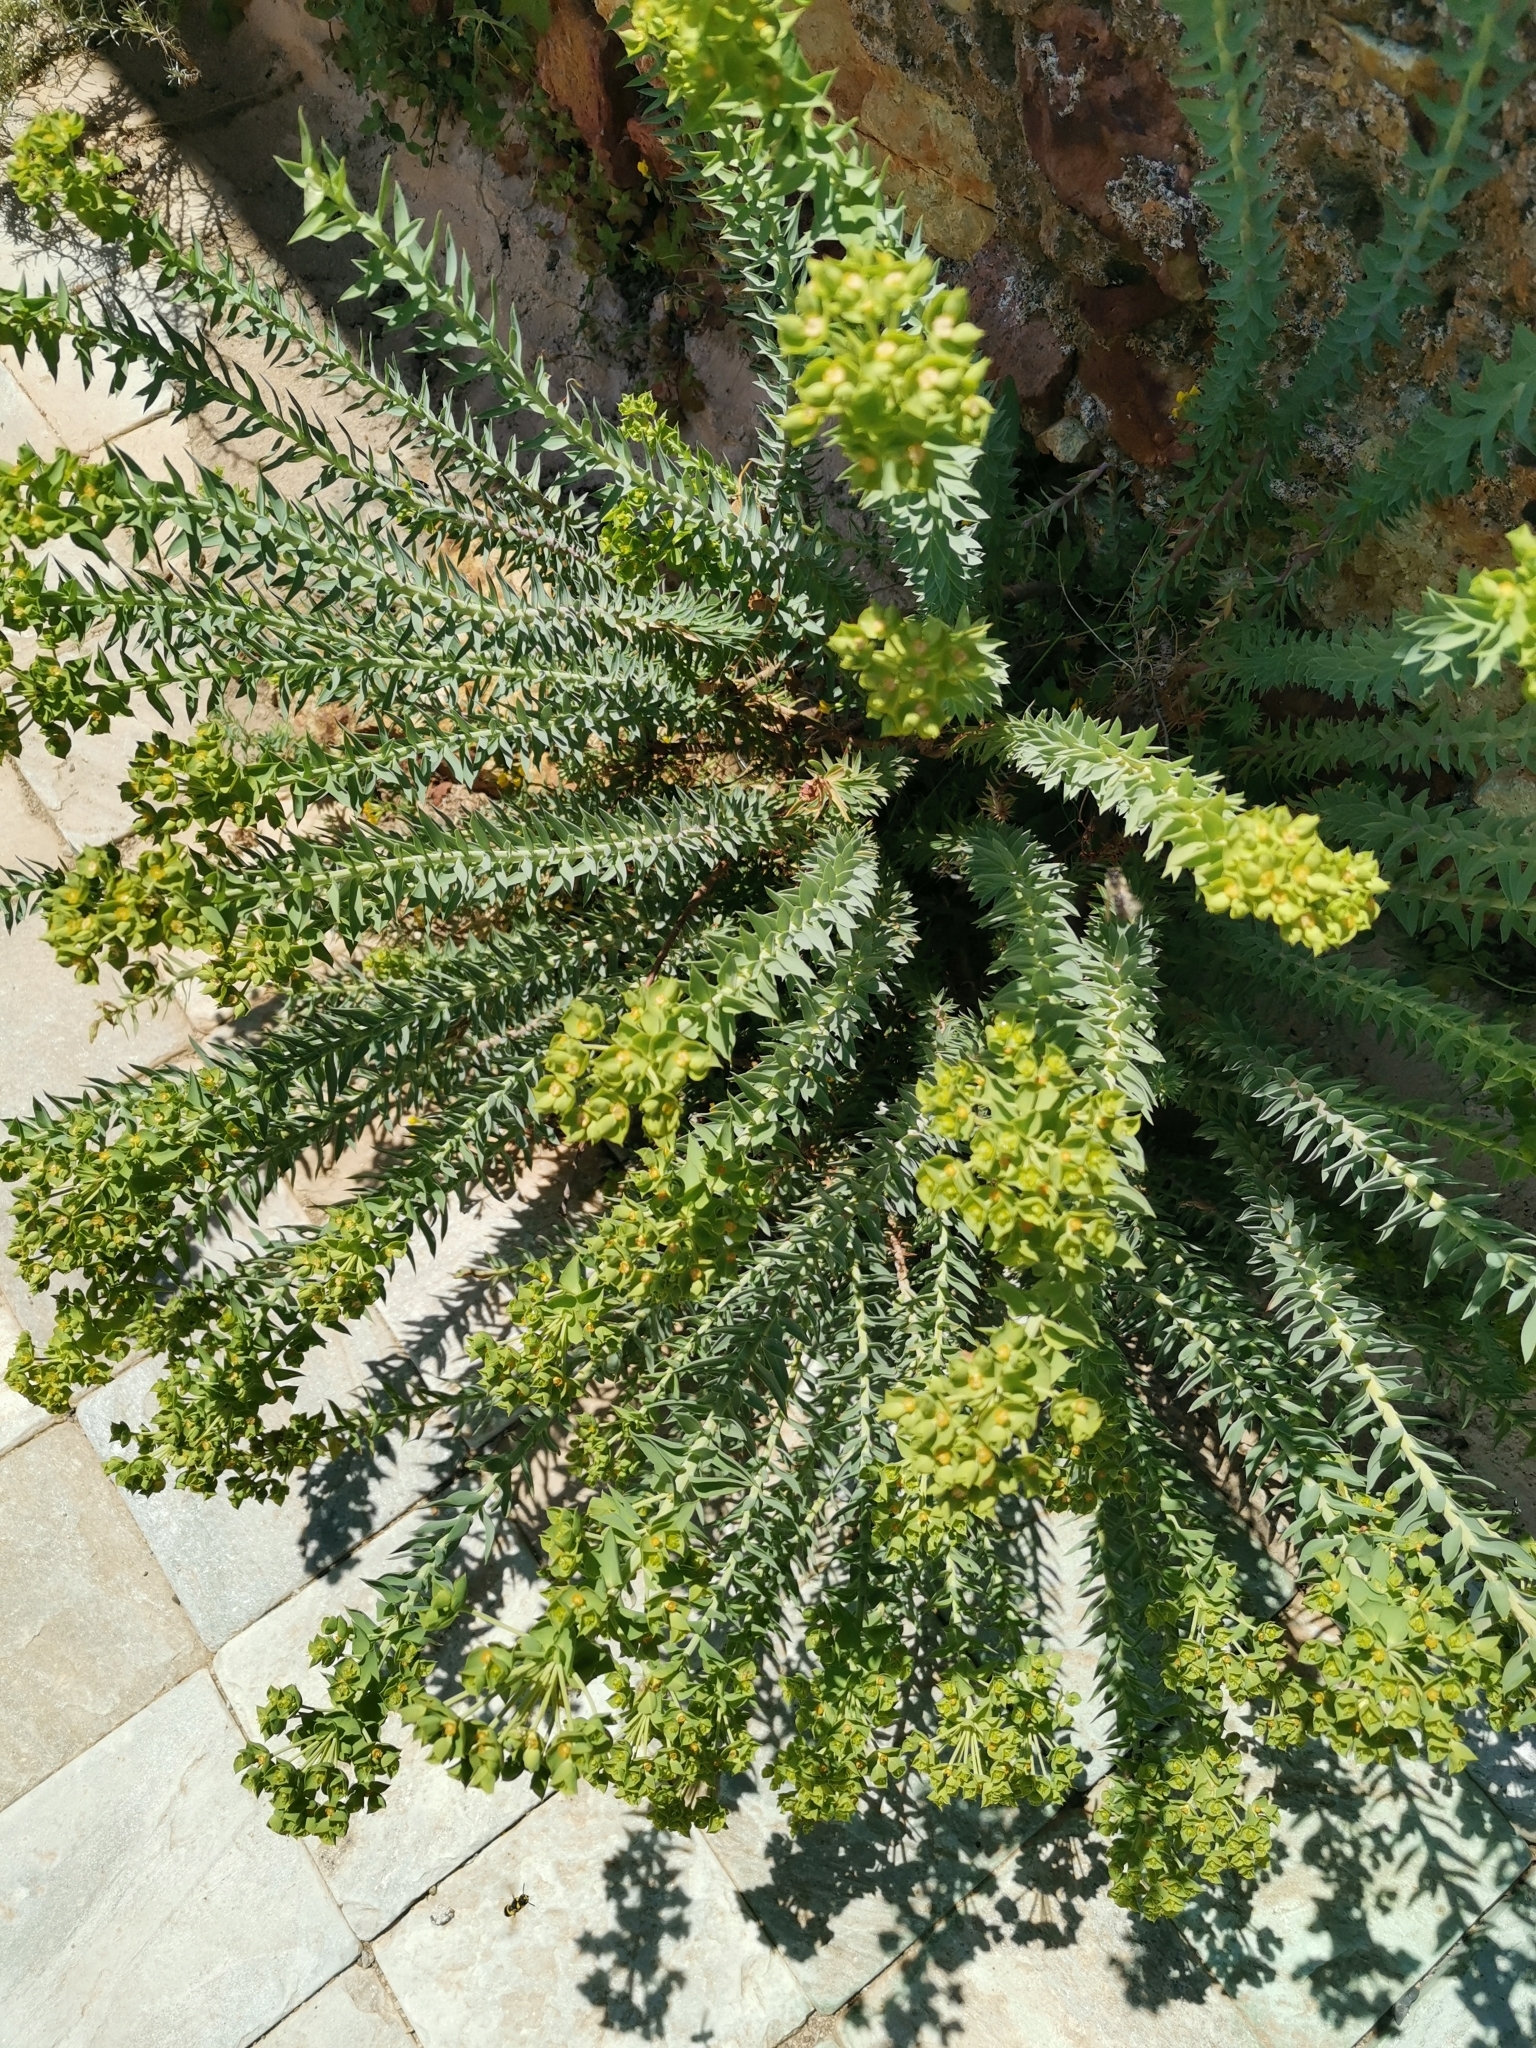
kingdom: Plantae
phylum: Tracheophyta
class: Magnoliopsida
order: Malpighiales
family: Euphorbiaceae
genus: Euphorbia
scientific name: Euphorbia pithyusa
